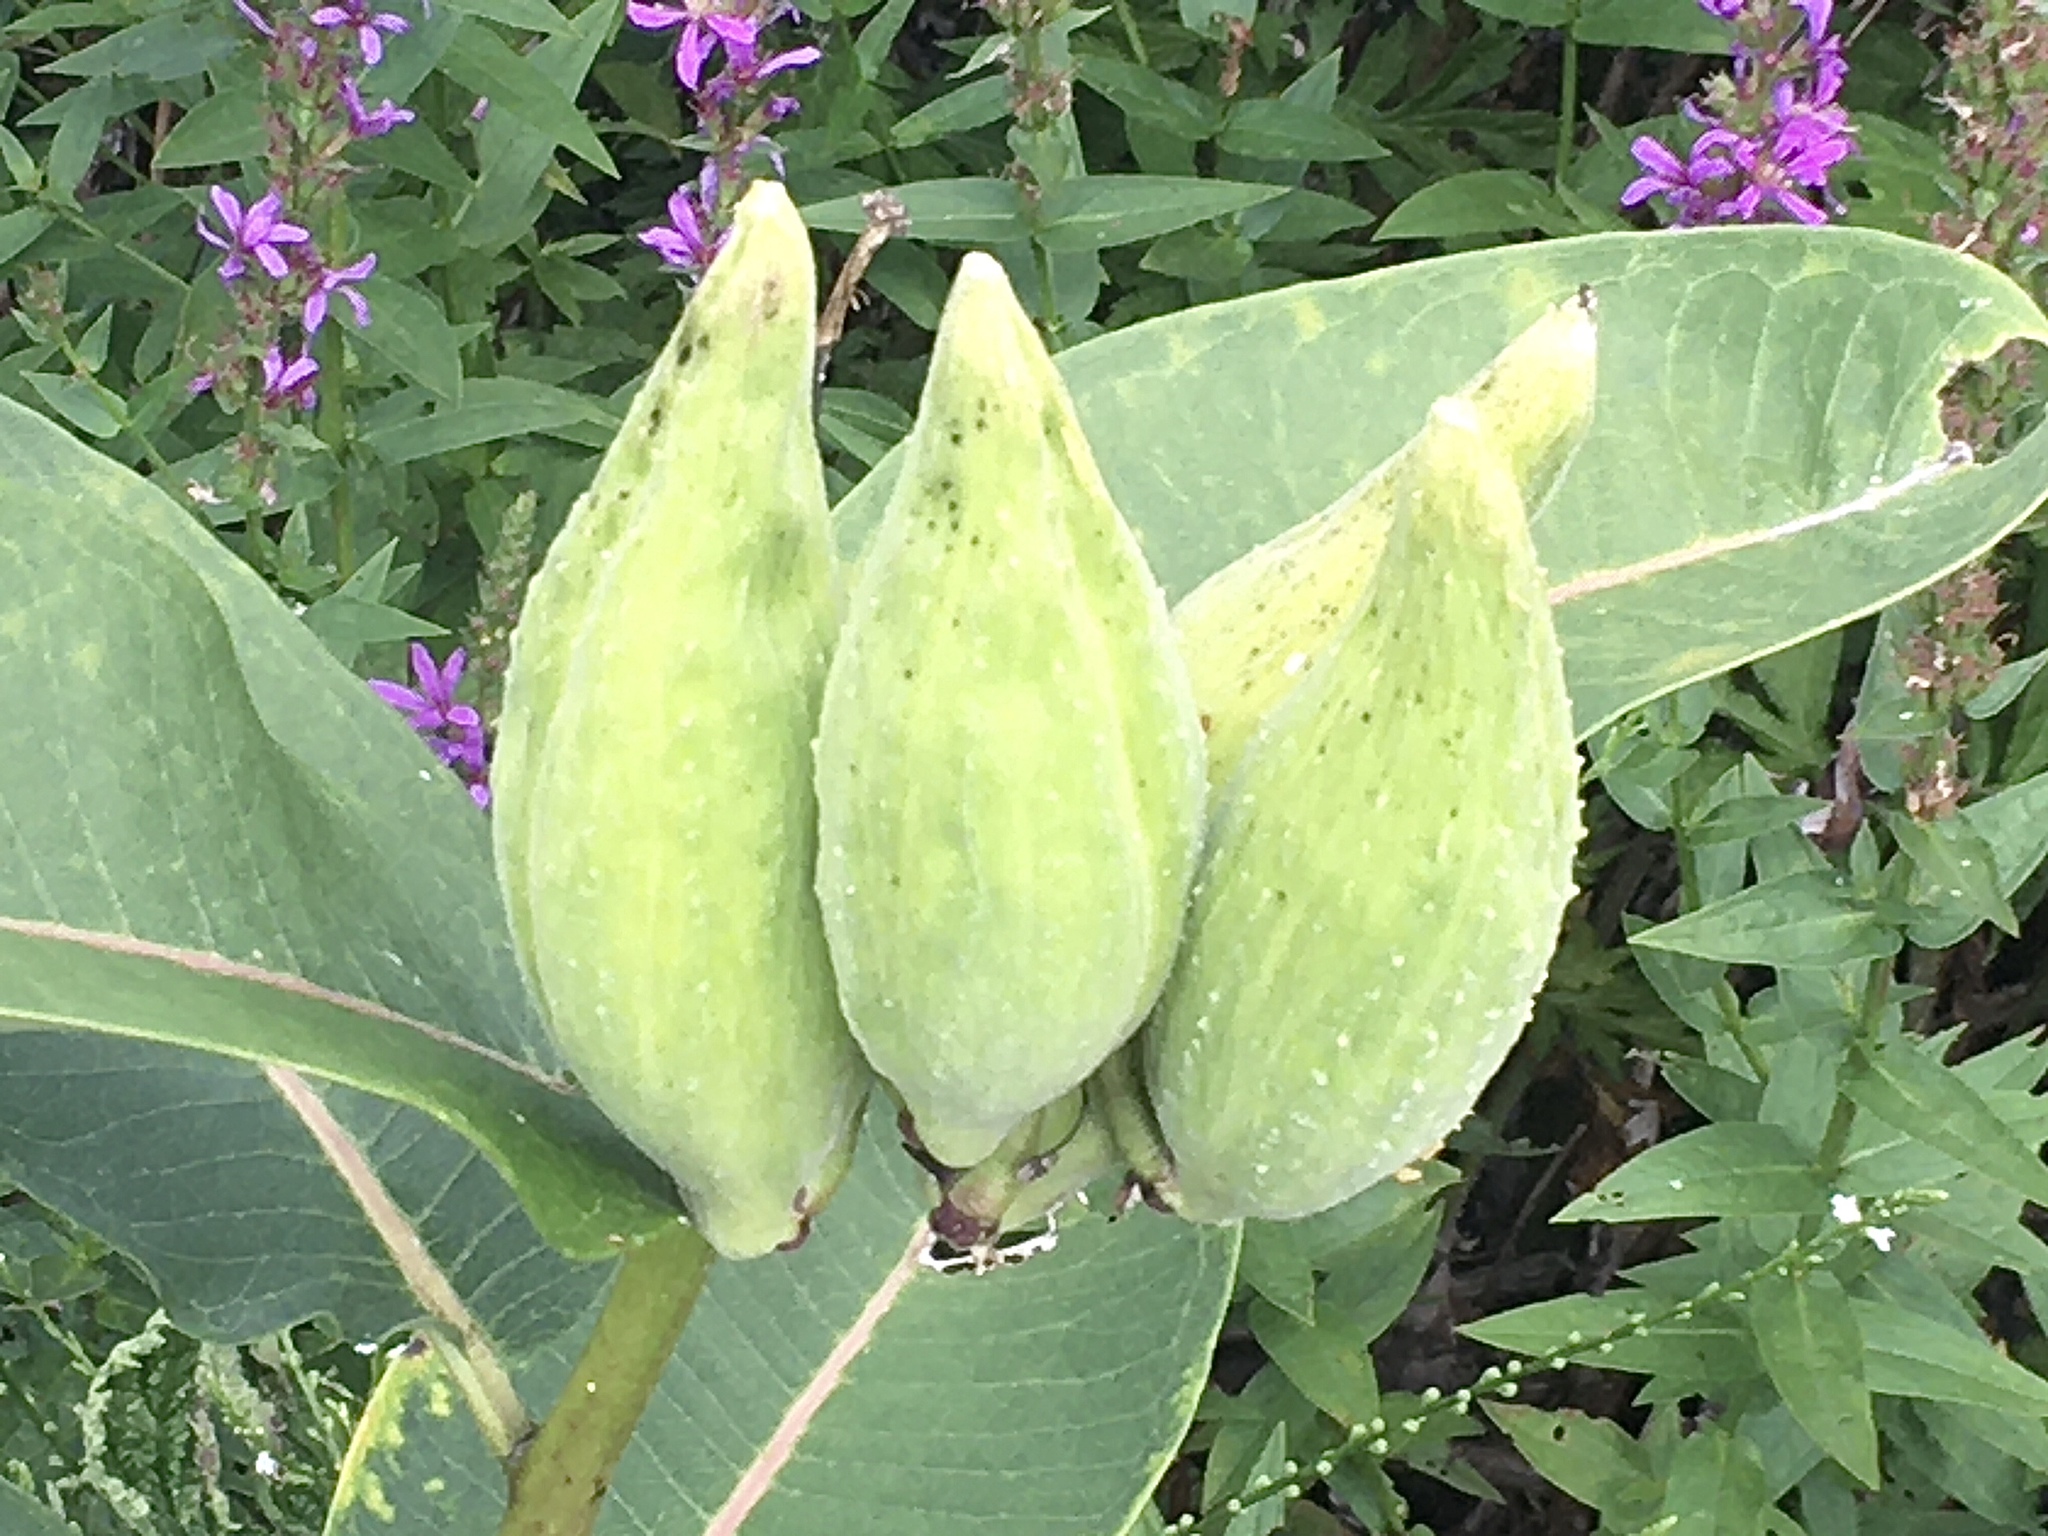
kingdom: Plantae
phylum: Tracheophyta
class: Magnoliopsida
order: Gentianales
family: Apocynaceae
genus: Asclepias
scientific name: Asclepias syriaca
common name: Common milkweed
